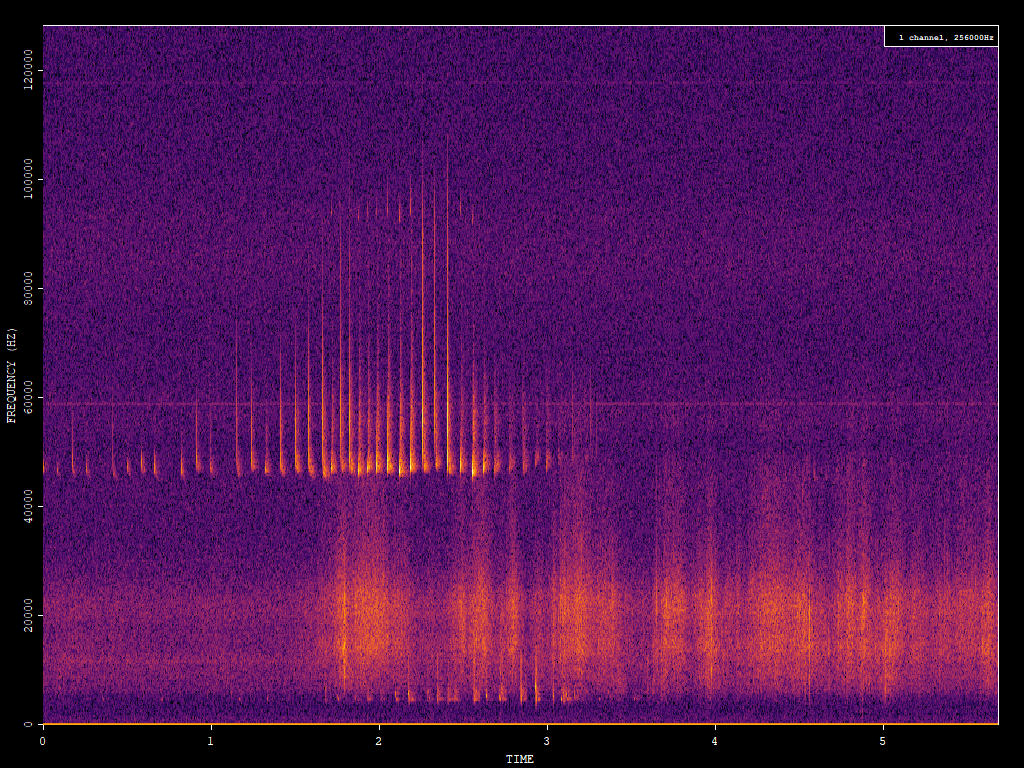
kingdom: Animalia
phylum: Chordata
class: Mammalia
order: Chiroptera
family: Vespertilionidae
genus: Pipistrellus
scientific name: Pipistrellus pipistrellus
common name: Common pipistrelle
